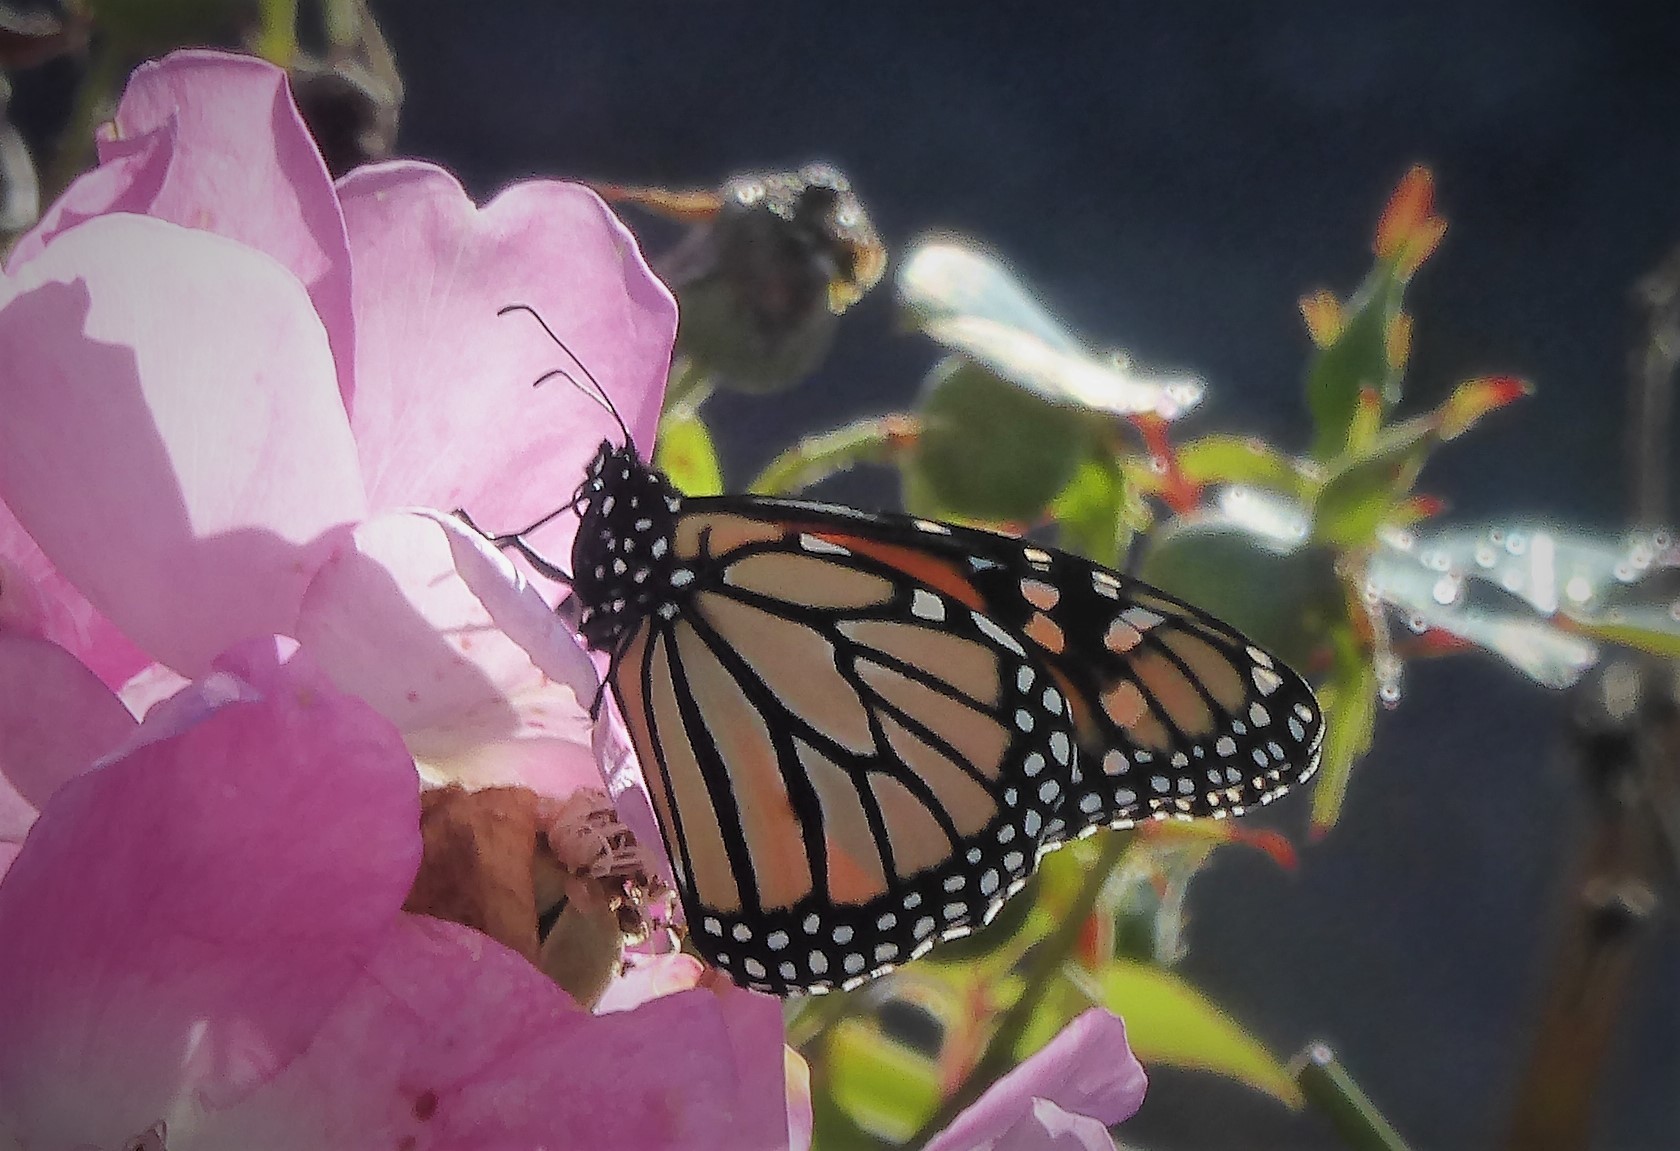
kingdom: Animalia
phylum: Arthropoda
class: Insecta
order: Lepidoptera
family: Nymphalidae
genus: Danaus
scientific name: Danaus plexippus
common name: Monarch
